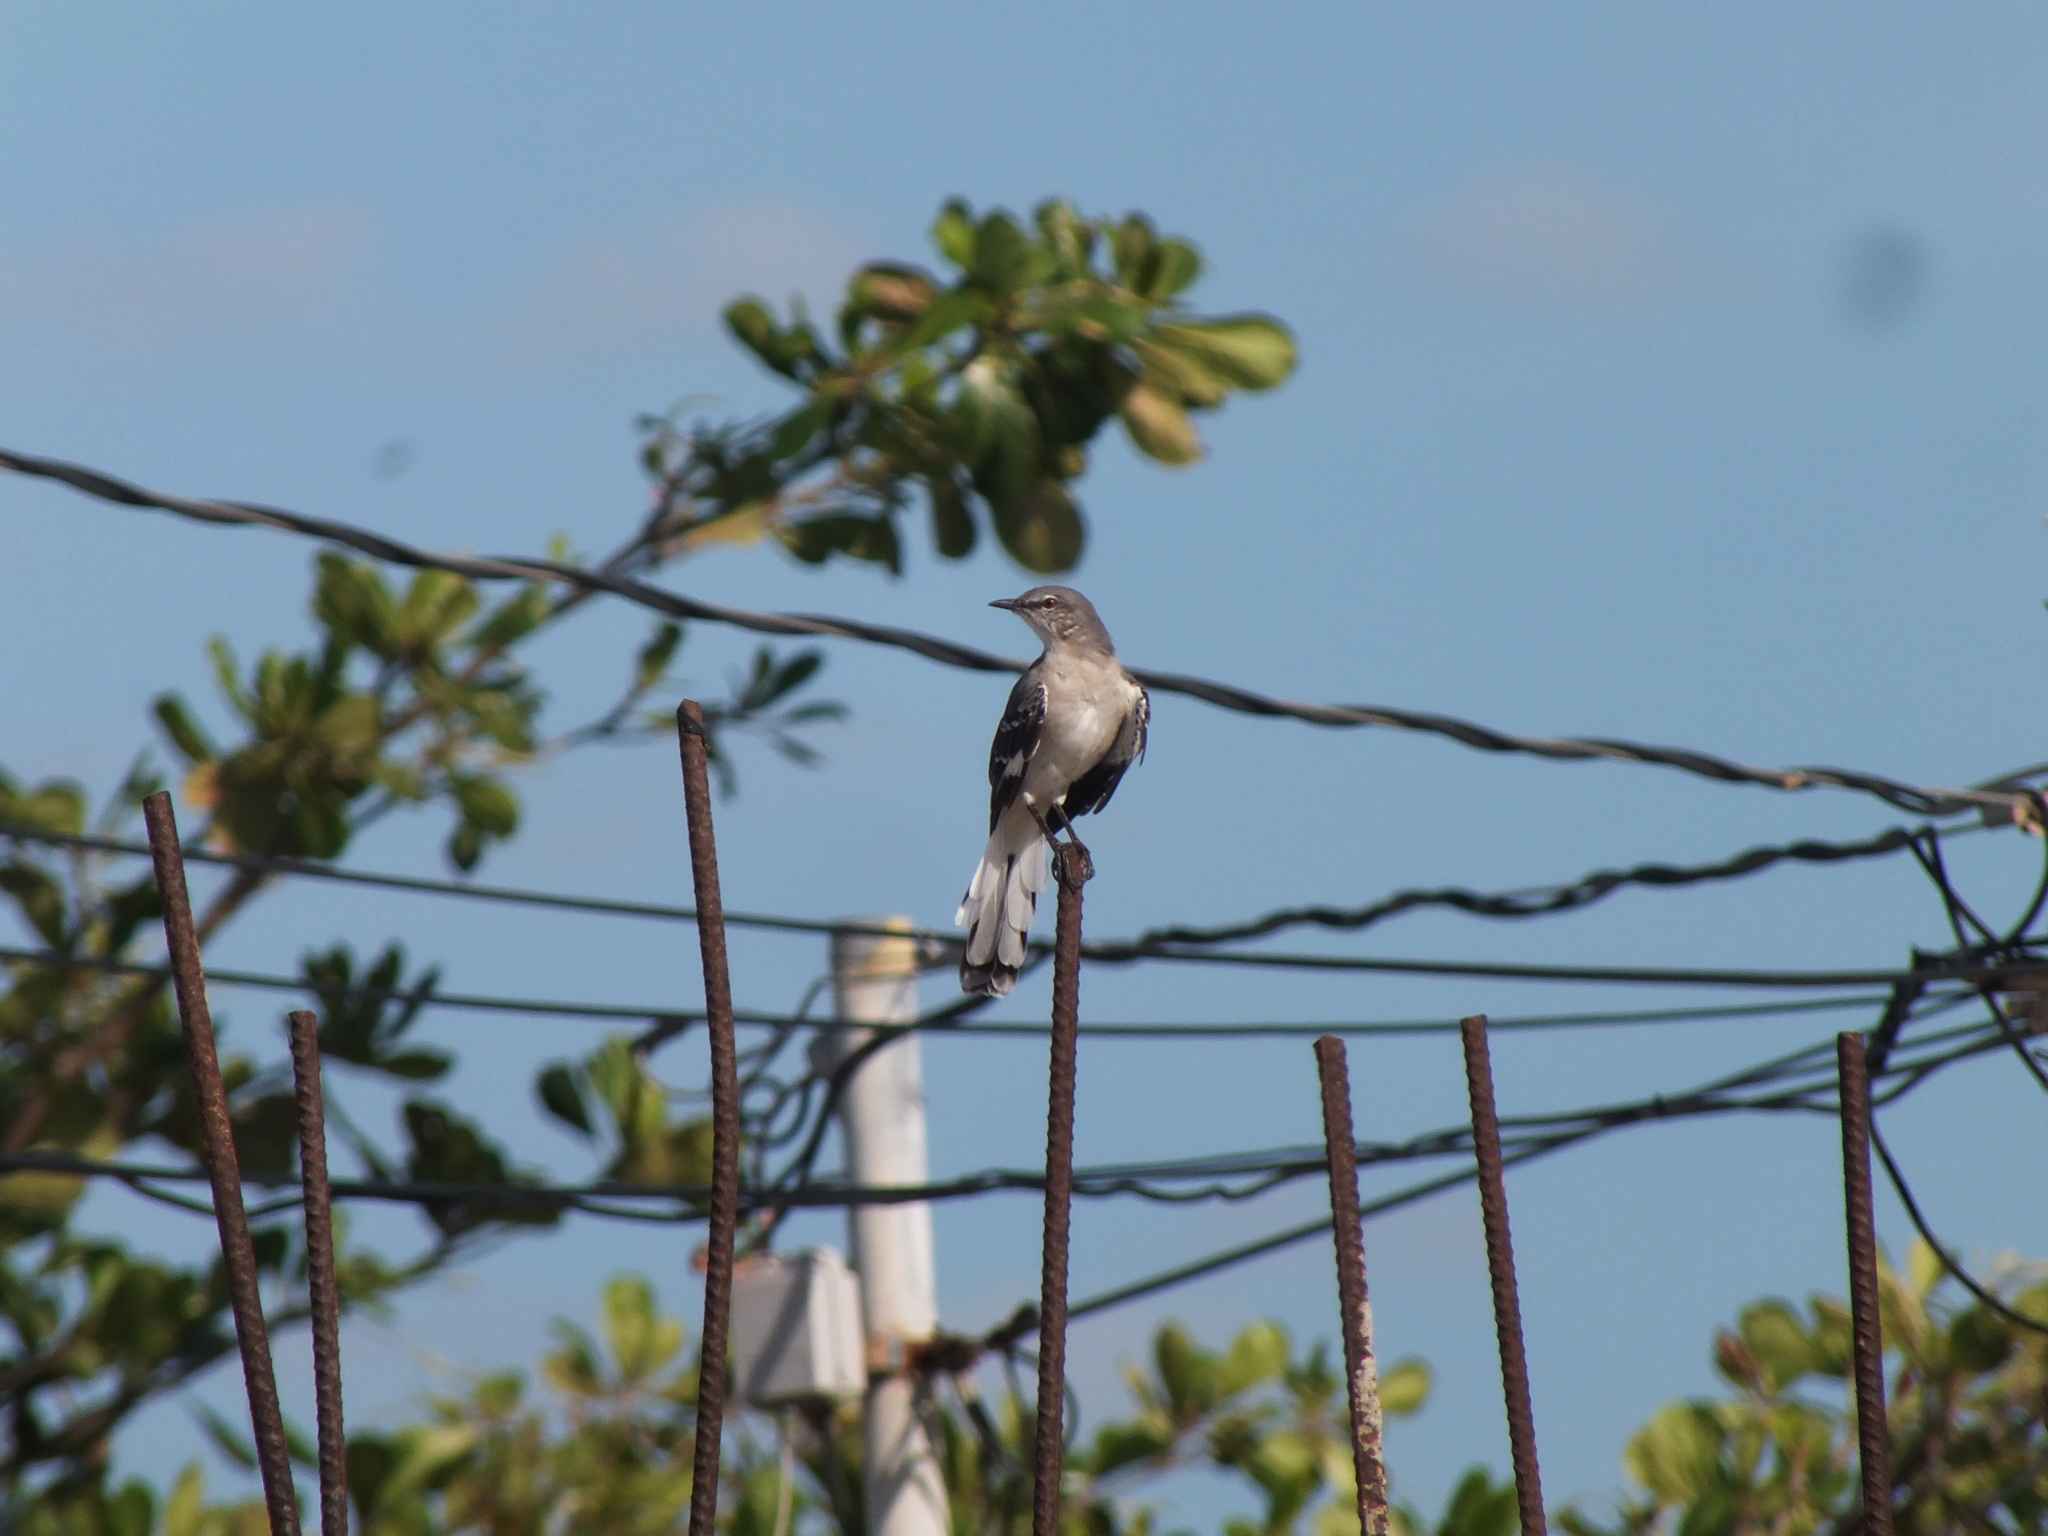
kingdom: Animalia
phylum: Chordata
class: Aves
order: Passeriformes
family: Mimidae
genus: Mimus
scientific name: Mimus polyglottos
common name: Northern mockingbird
